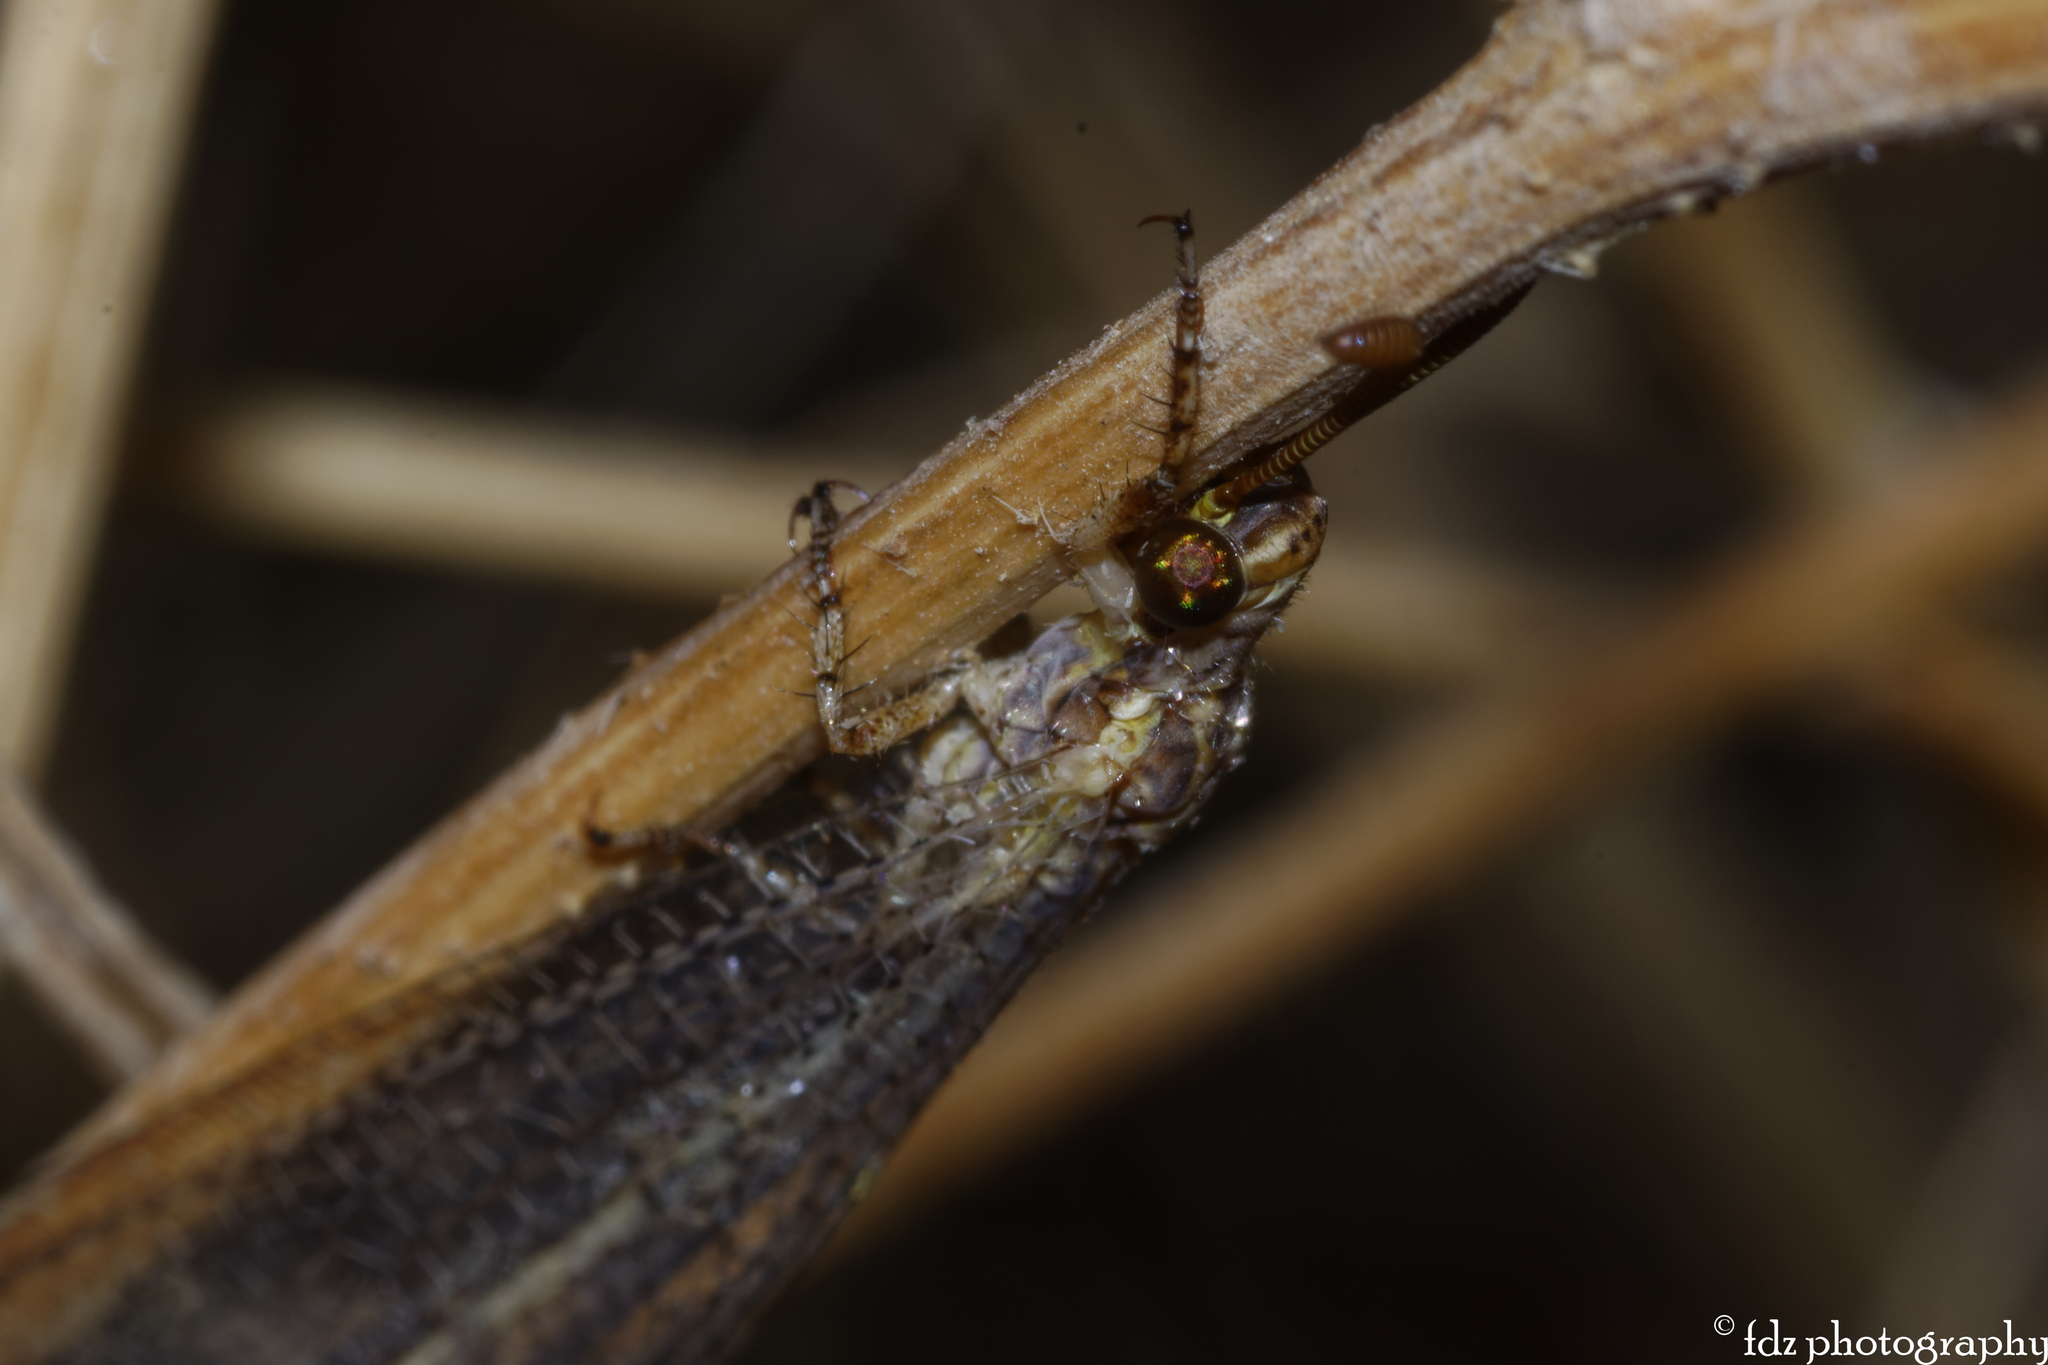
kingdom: Animalia
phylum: Arthropoda
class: Insecta
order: Neuroptera
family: Myrmeleontidae
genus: Macronemurus
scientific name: Macronemurus appendiculatus
